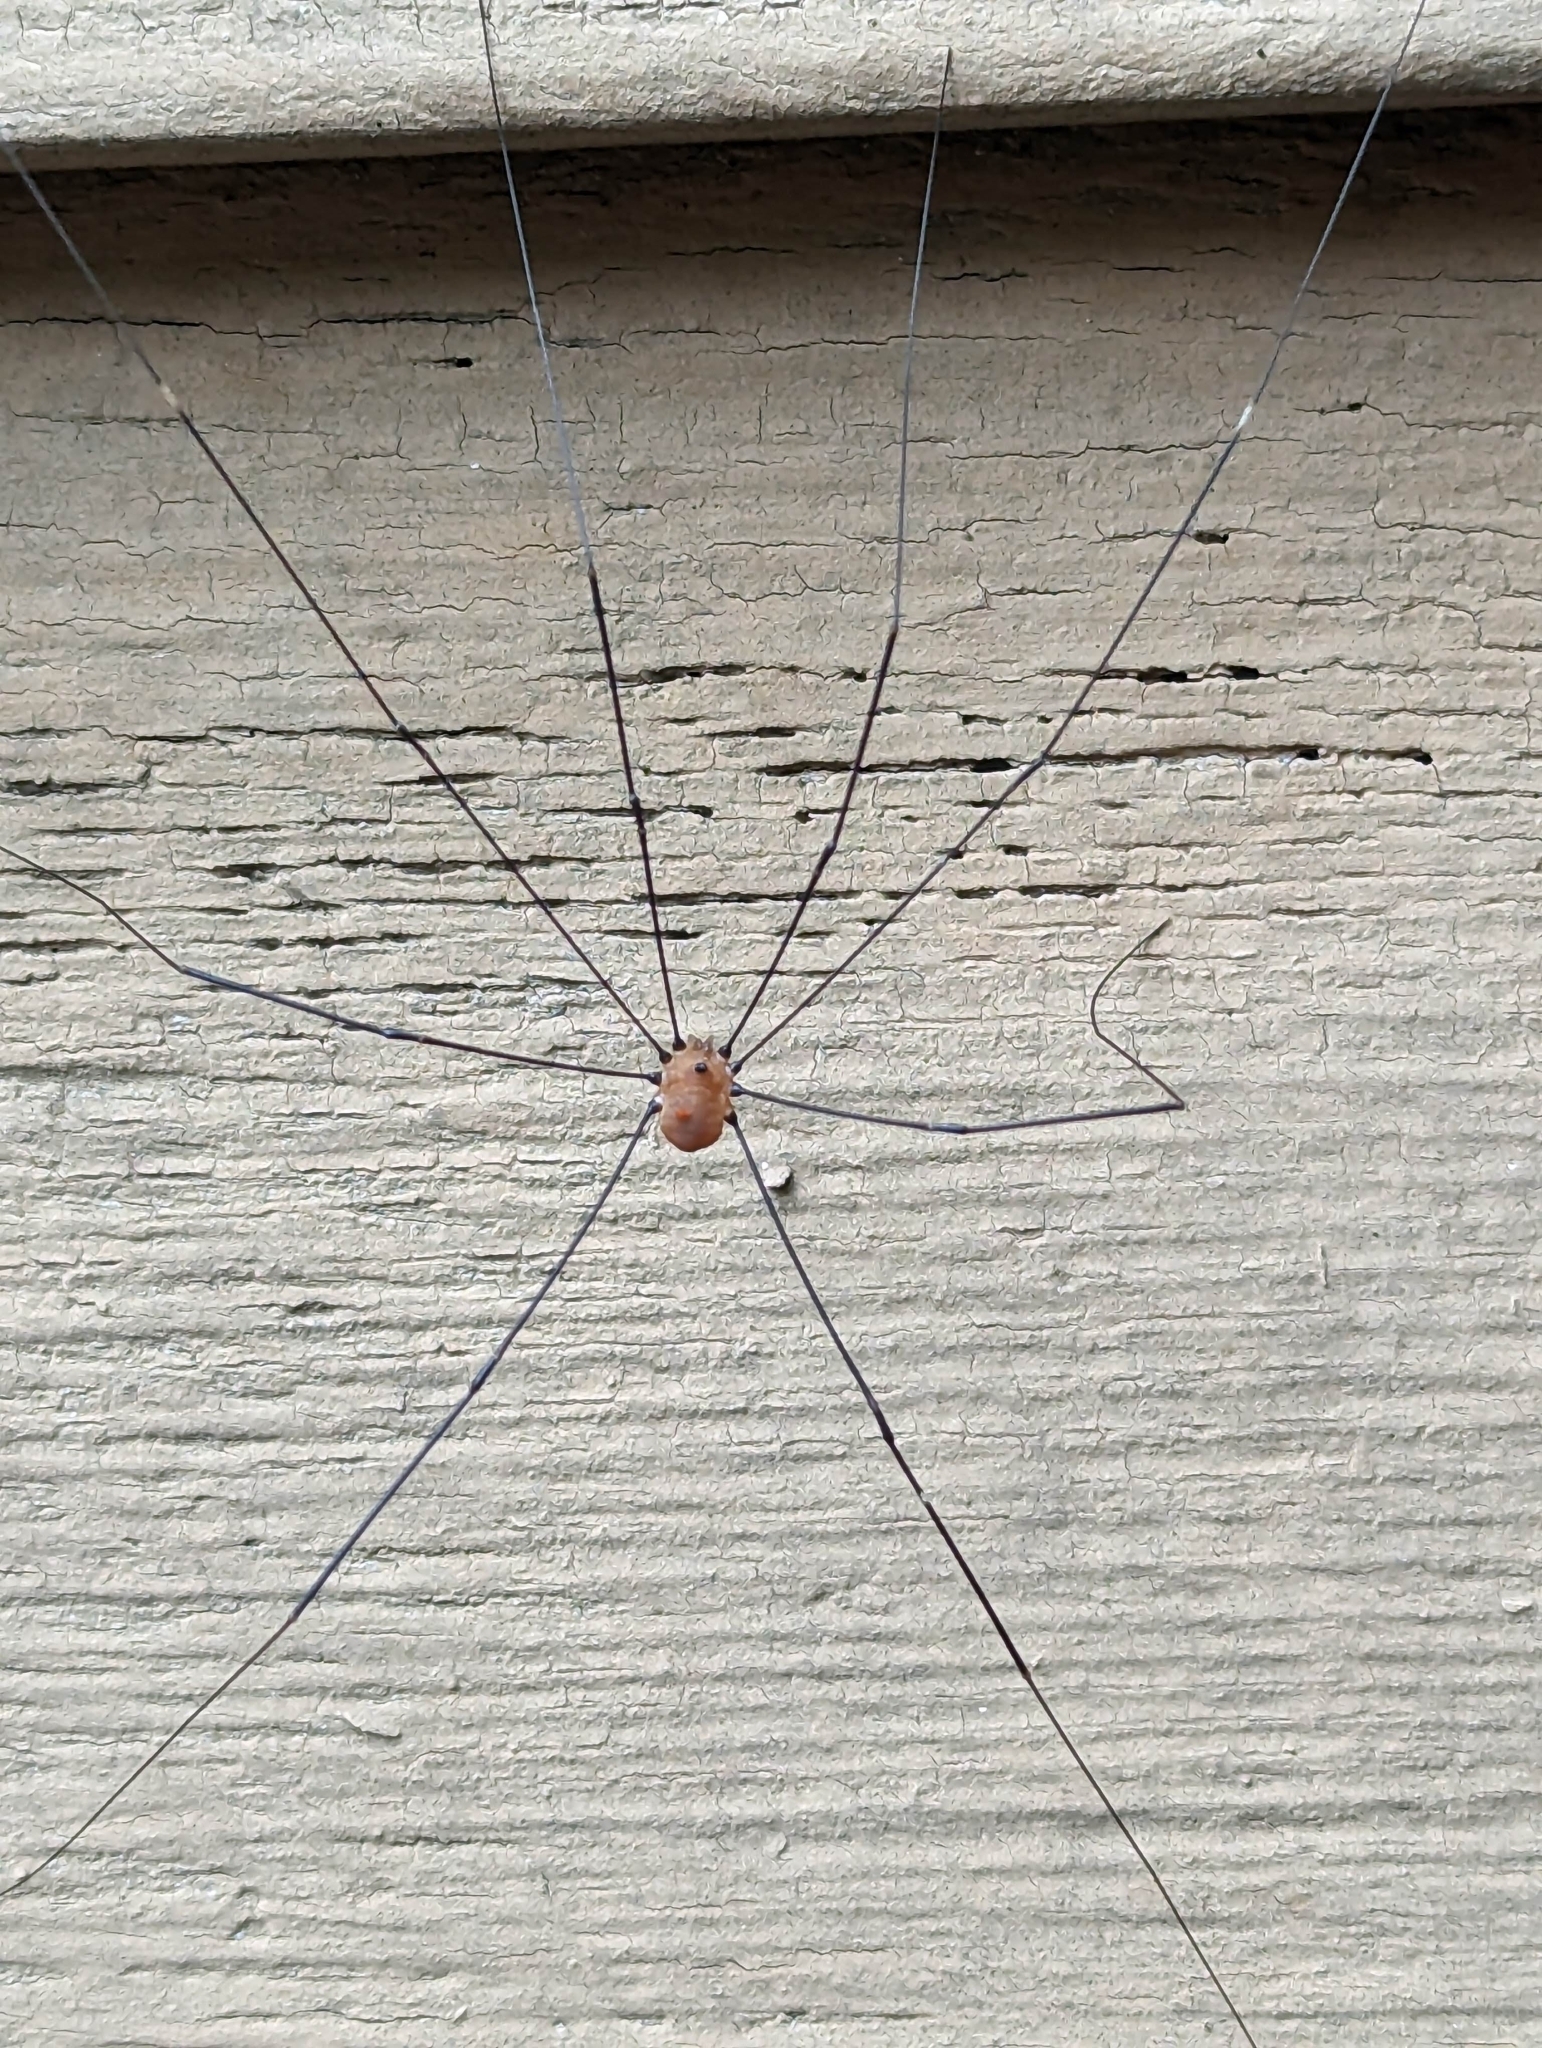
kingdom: Animalia
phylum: Arthropoda
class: Arachnida
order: Opiliones
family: Sclerosomatidae
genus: Leiobunum
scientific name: Leiobunum aldrichi
